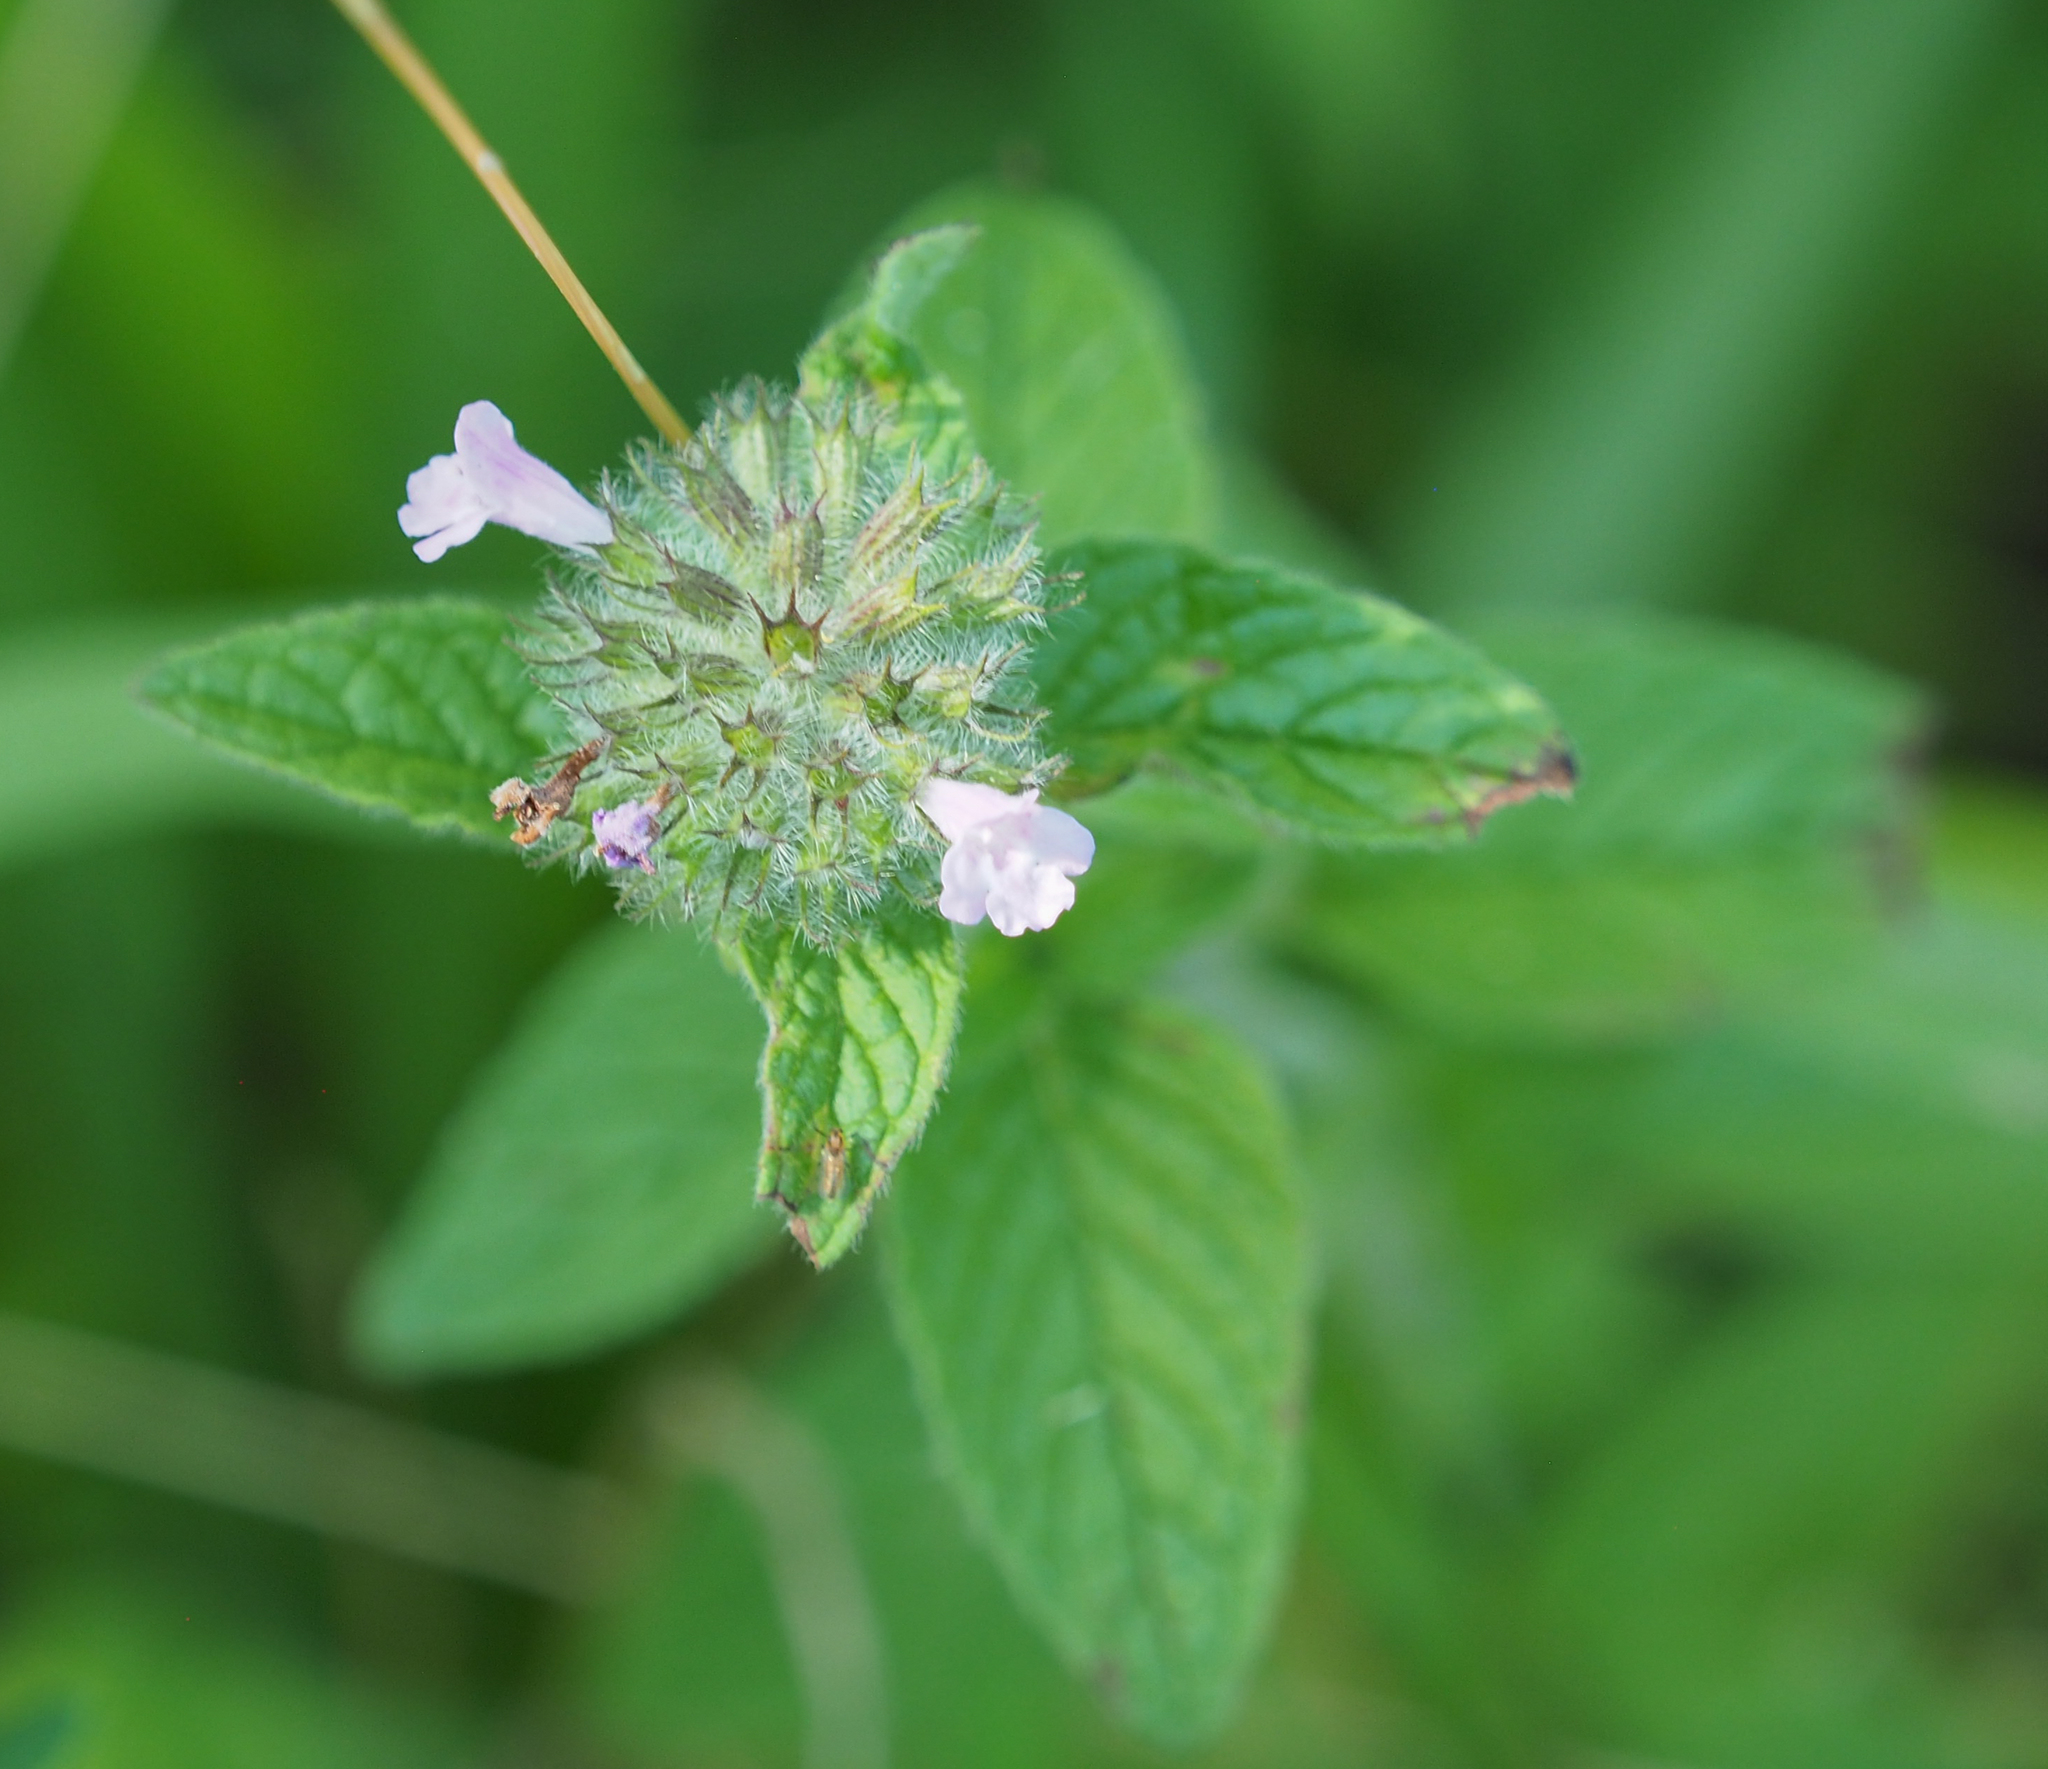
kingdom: Plantae
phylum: Tracheophyta
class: Magnoliopsida
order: Lamiales
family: Lamiaceae
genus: Clinopodium
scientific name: Clinopodium vulgare
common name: Wild basil
